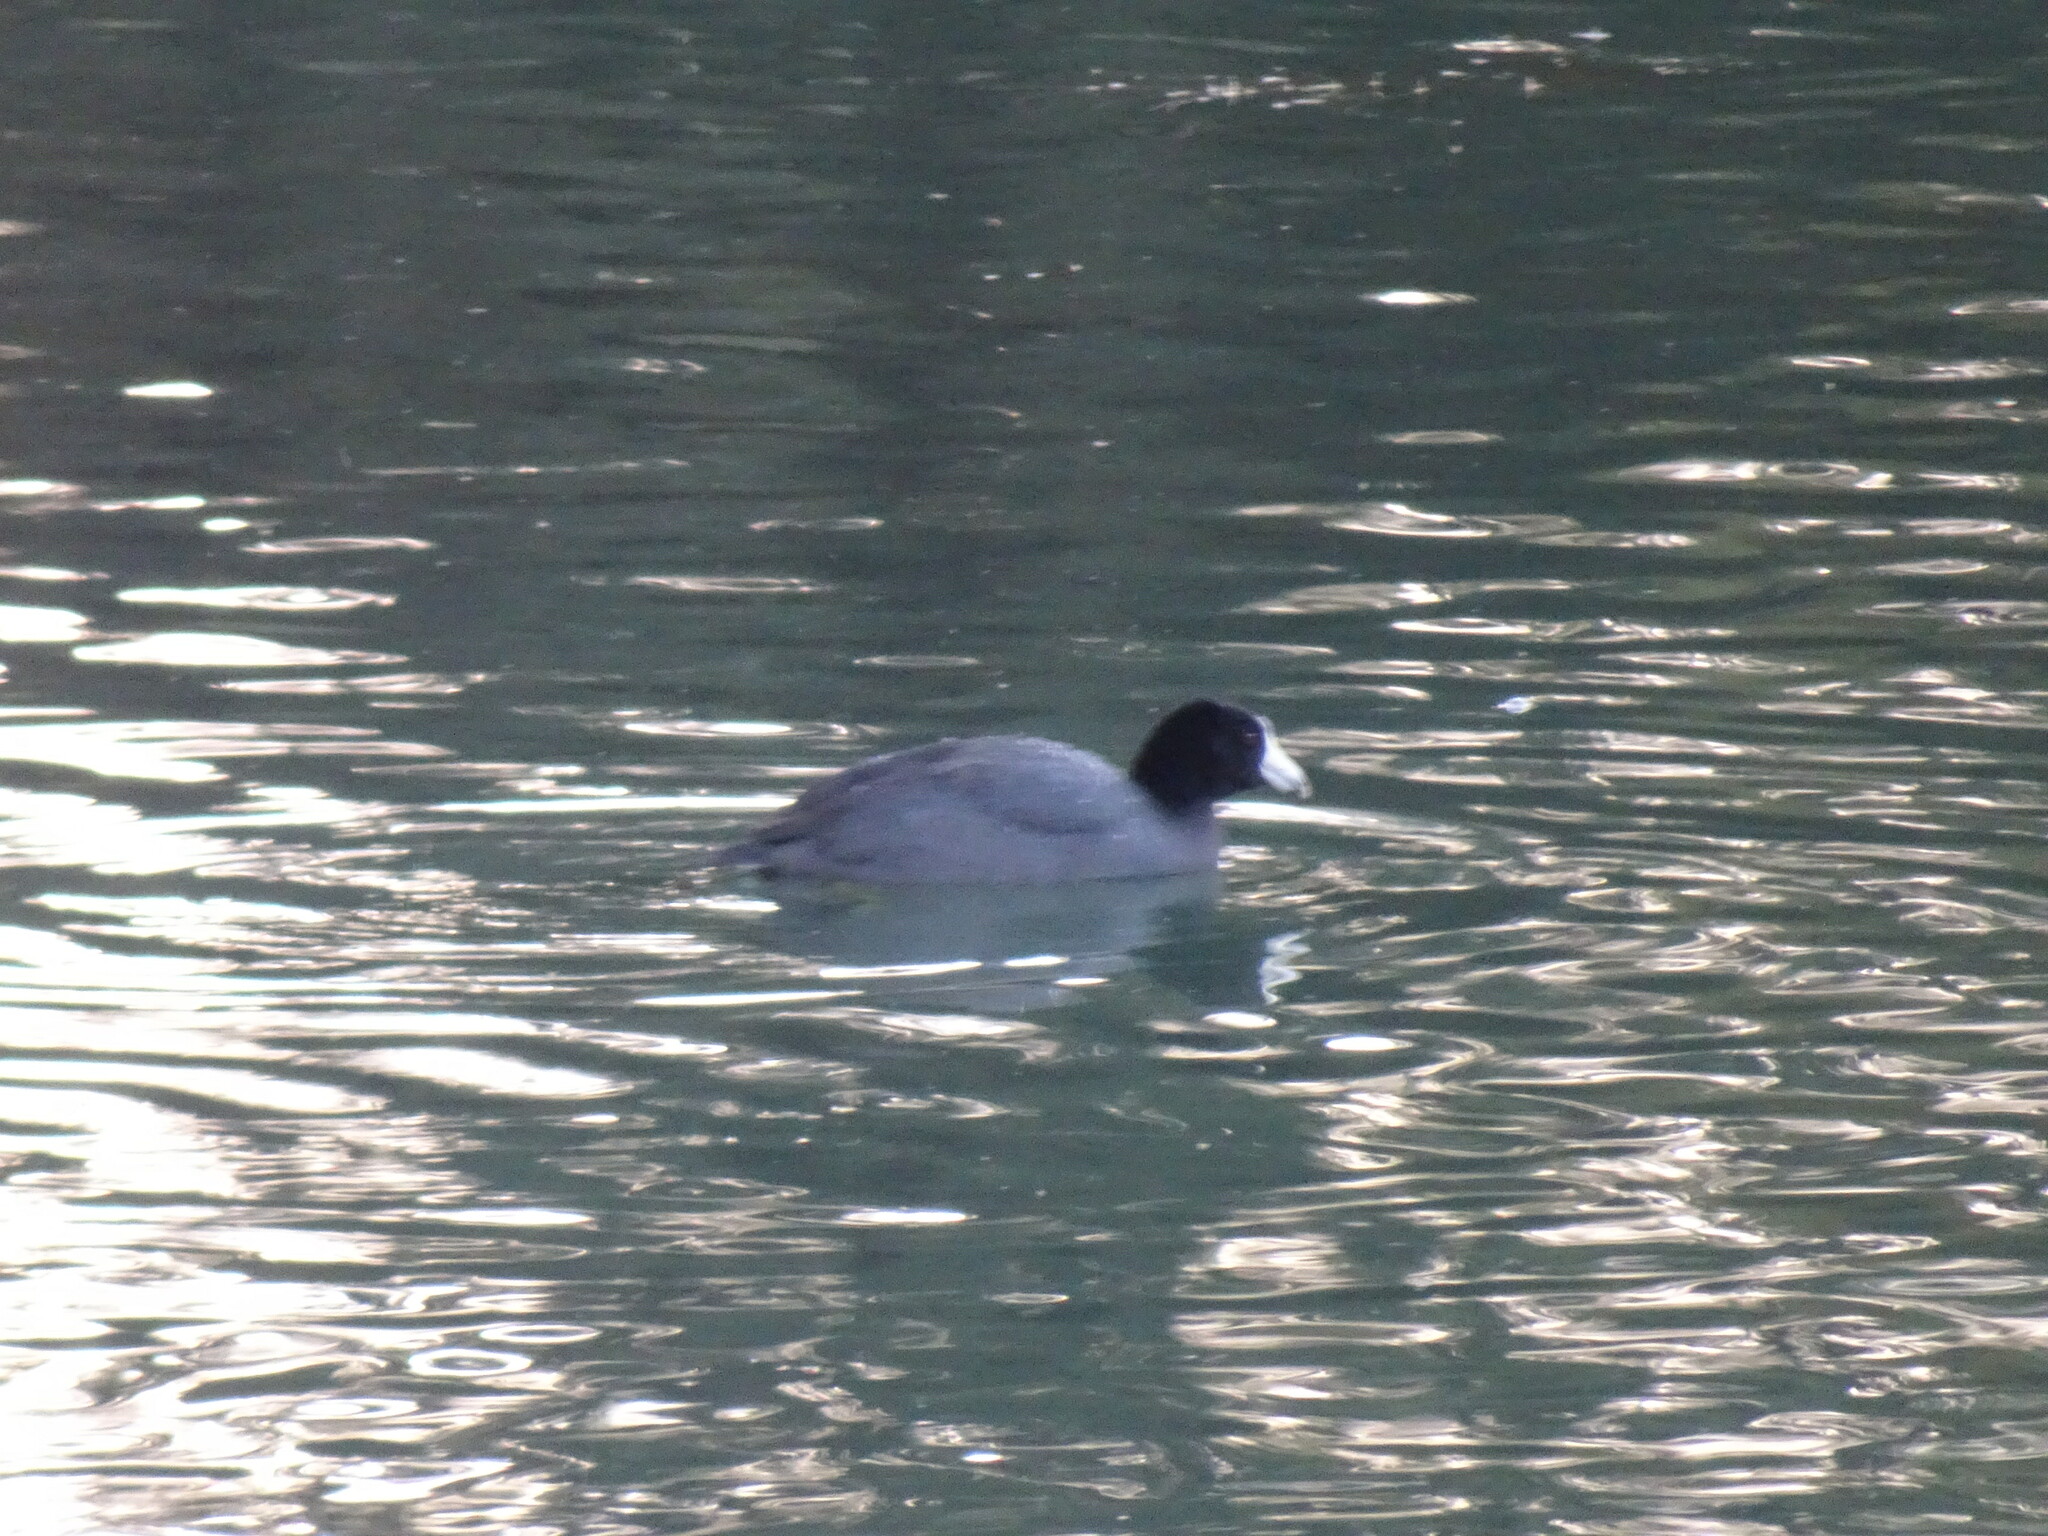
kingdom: Animalia
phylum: Chordata
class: Aves
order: Gruiformes
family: Rallidae
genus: Fulica
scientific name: Fulica americana
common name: American coot
